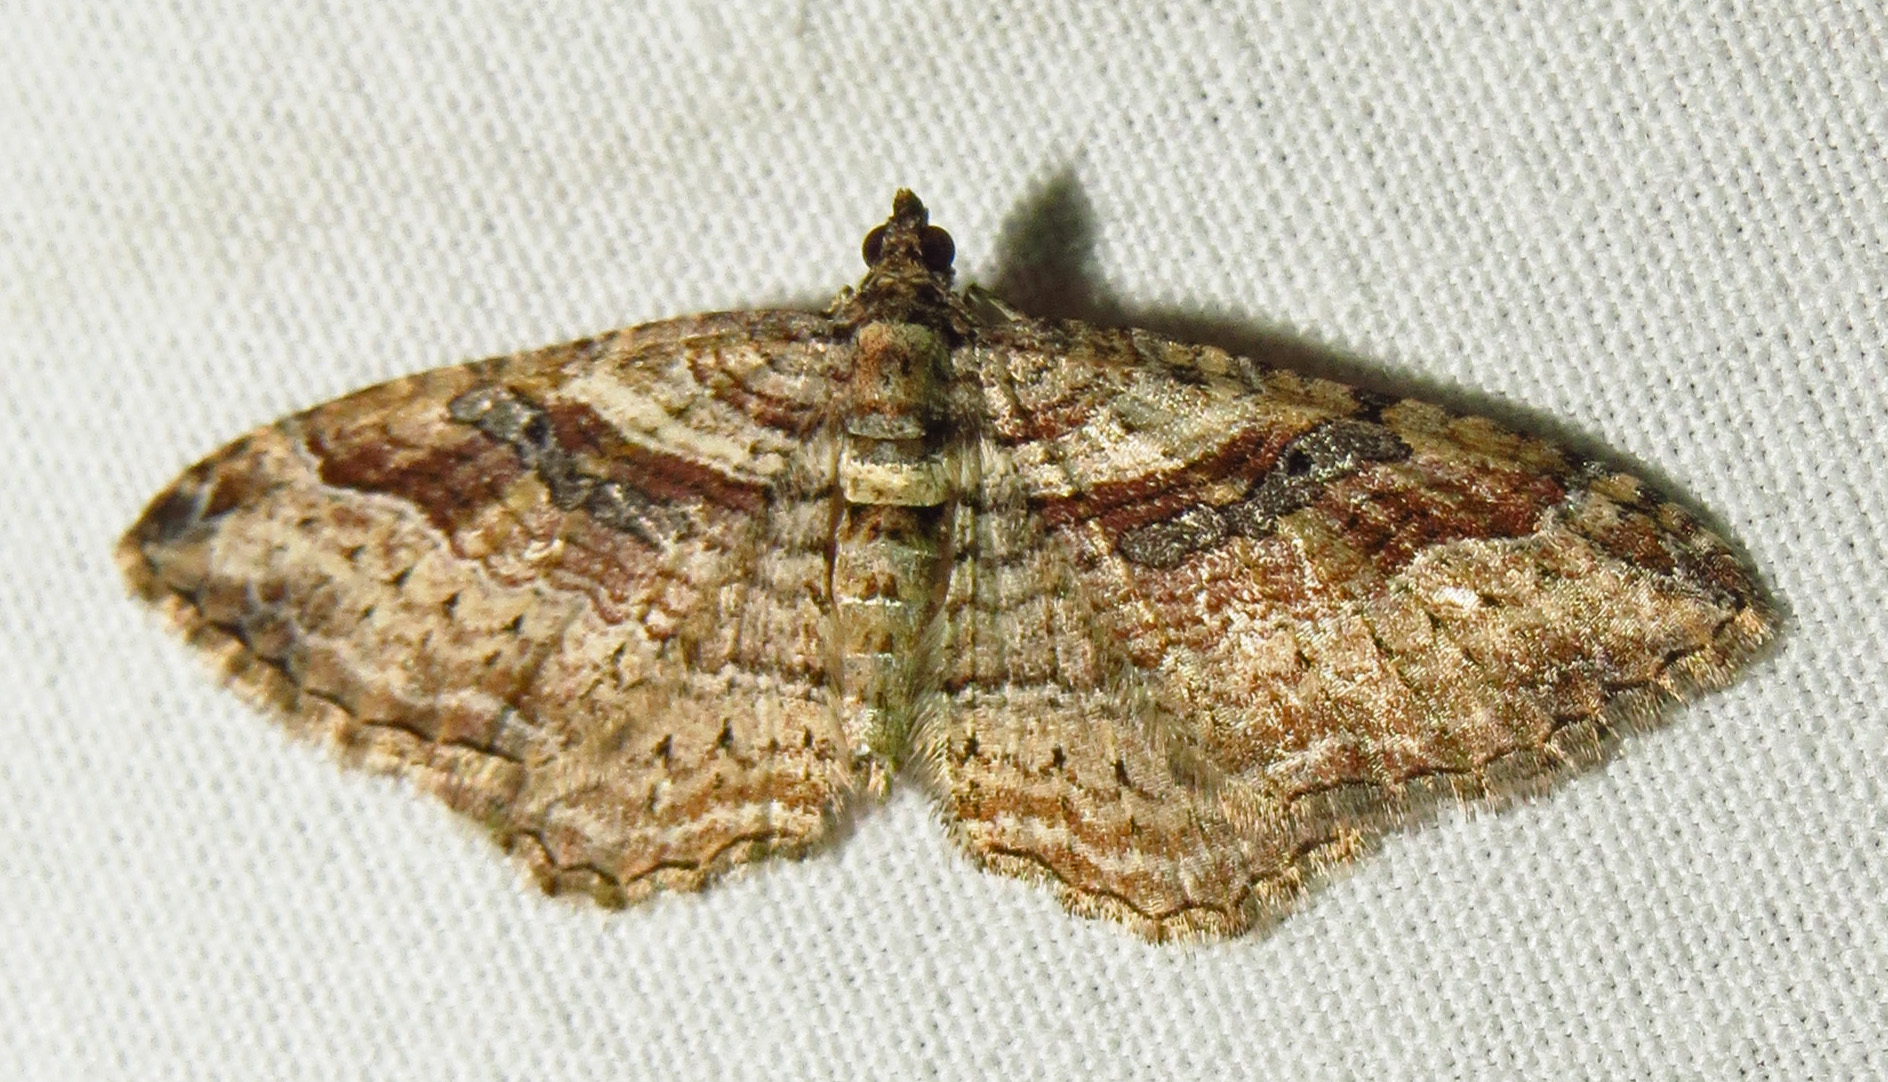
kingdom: Animalia
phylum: Arthropoda
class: Insecta
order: Lepidoptera
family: Geometridae
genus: Costaconvexa
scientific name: Costaconvexa centrostrigaria
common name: Bent-line carpet
